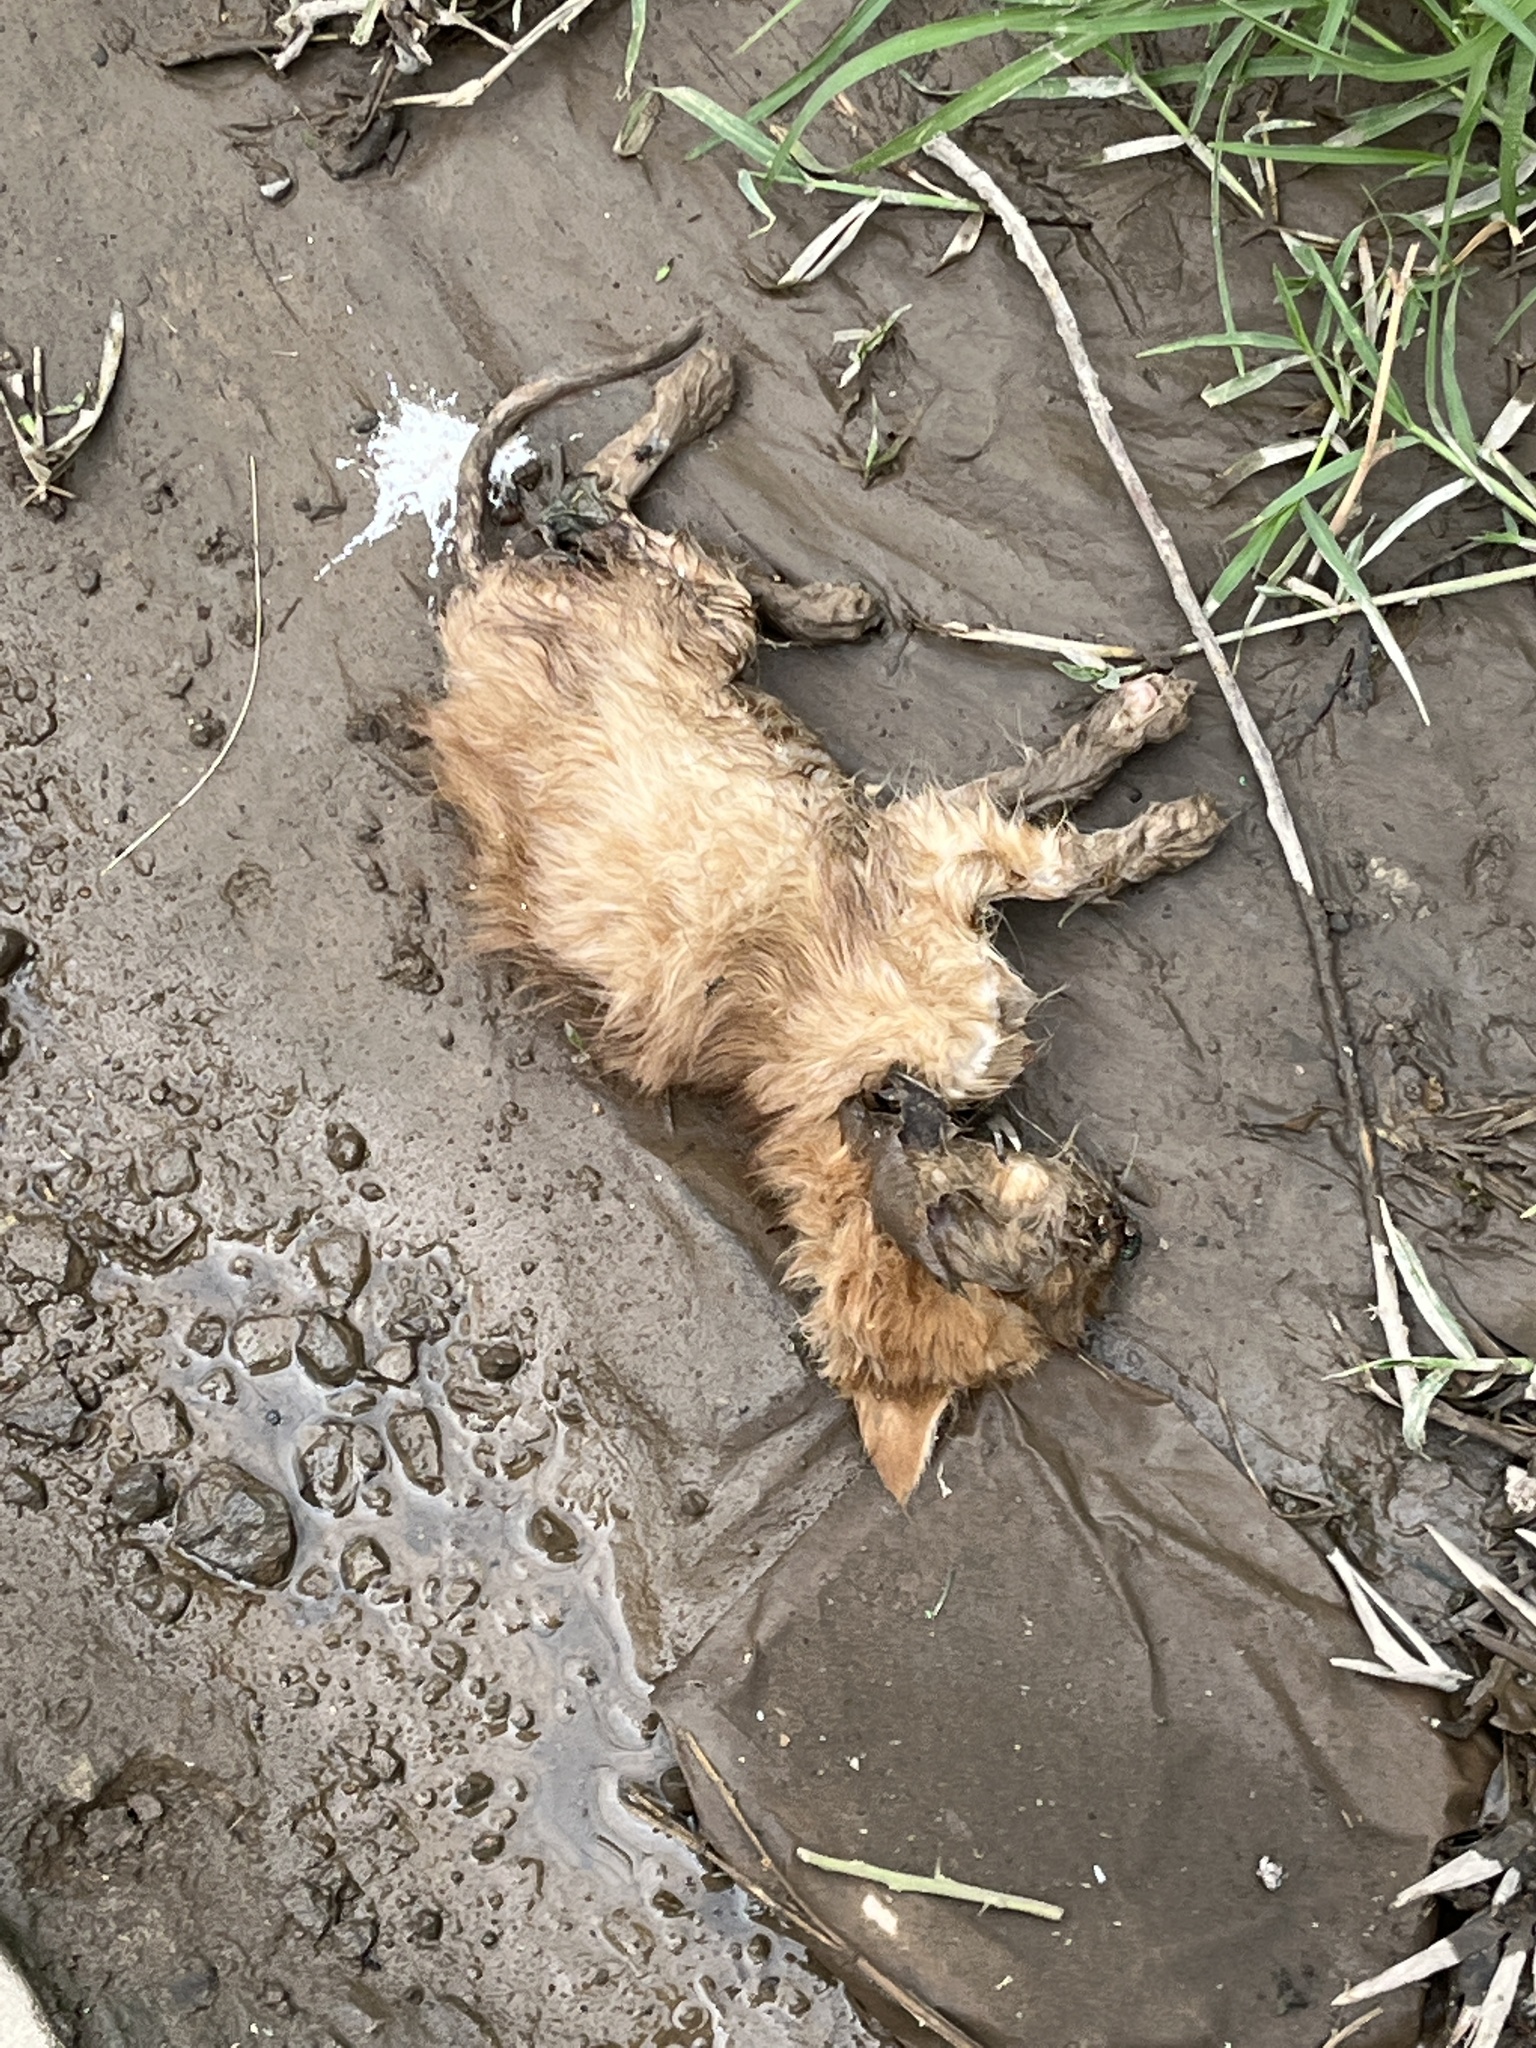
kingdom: Animalia
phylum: Chordata
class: Mammalia
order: Carnivora
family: Felidae
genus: Felis
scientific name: Felis catus
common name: Domestic cat
